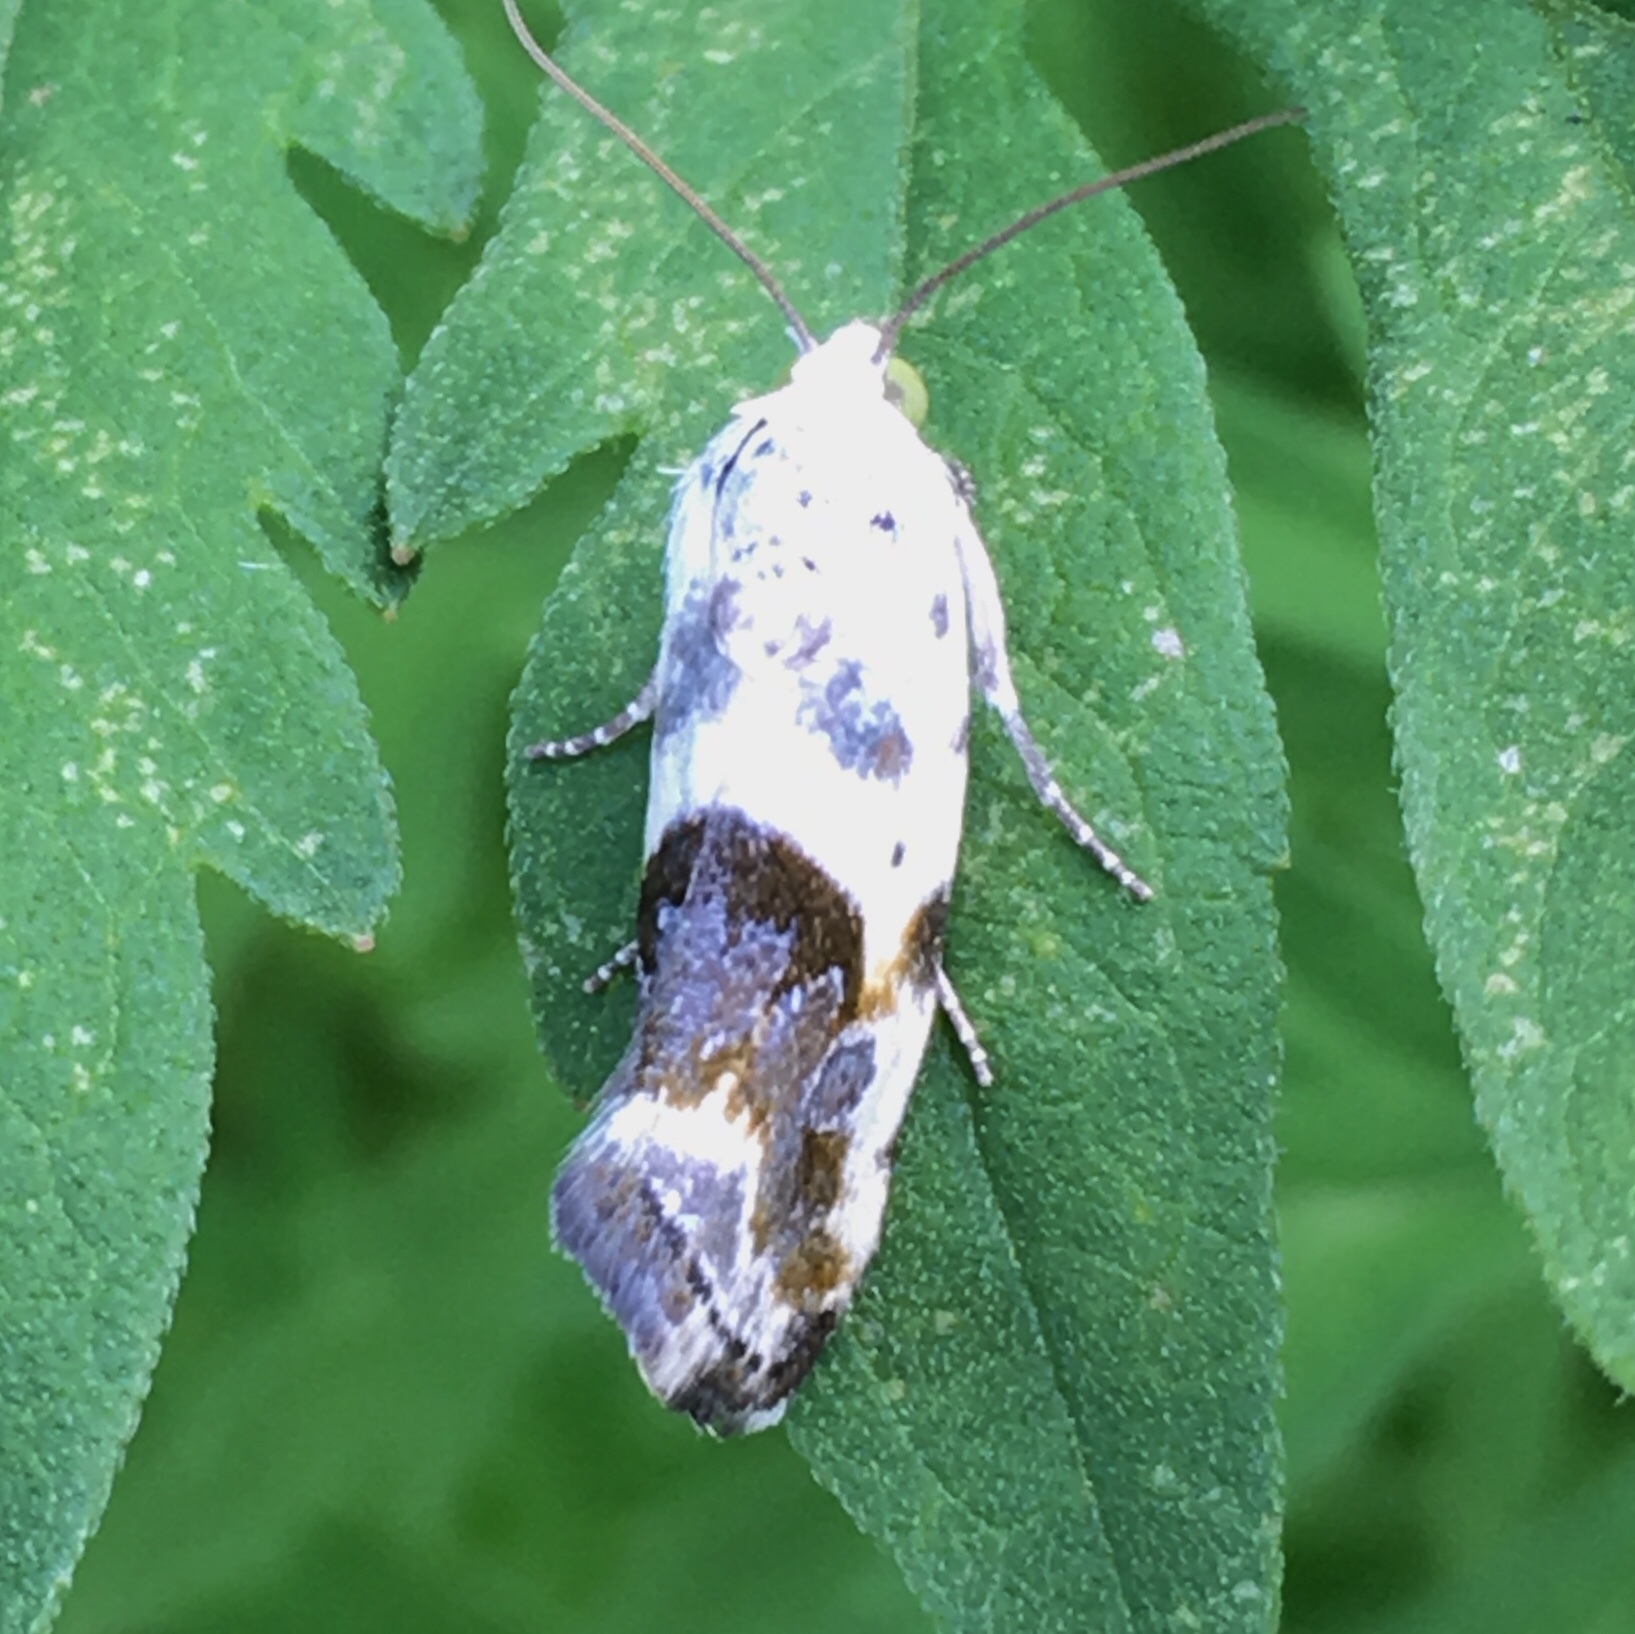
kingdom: Animalia
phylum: Arthropoda
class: Insecta
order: Lepidoptera
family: Noctuidae
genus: Acontia
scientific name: Acontia candefacta
